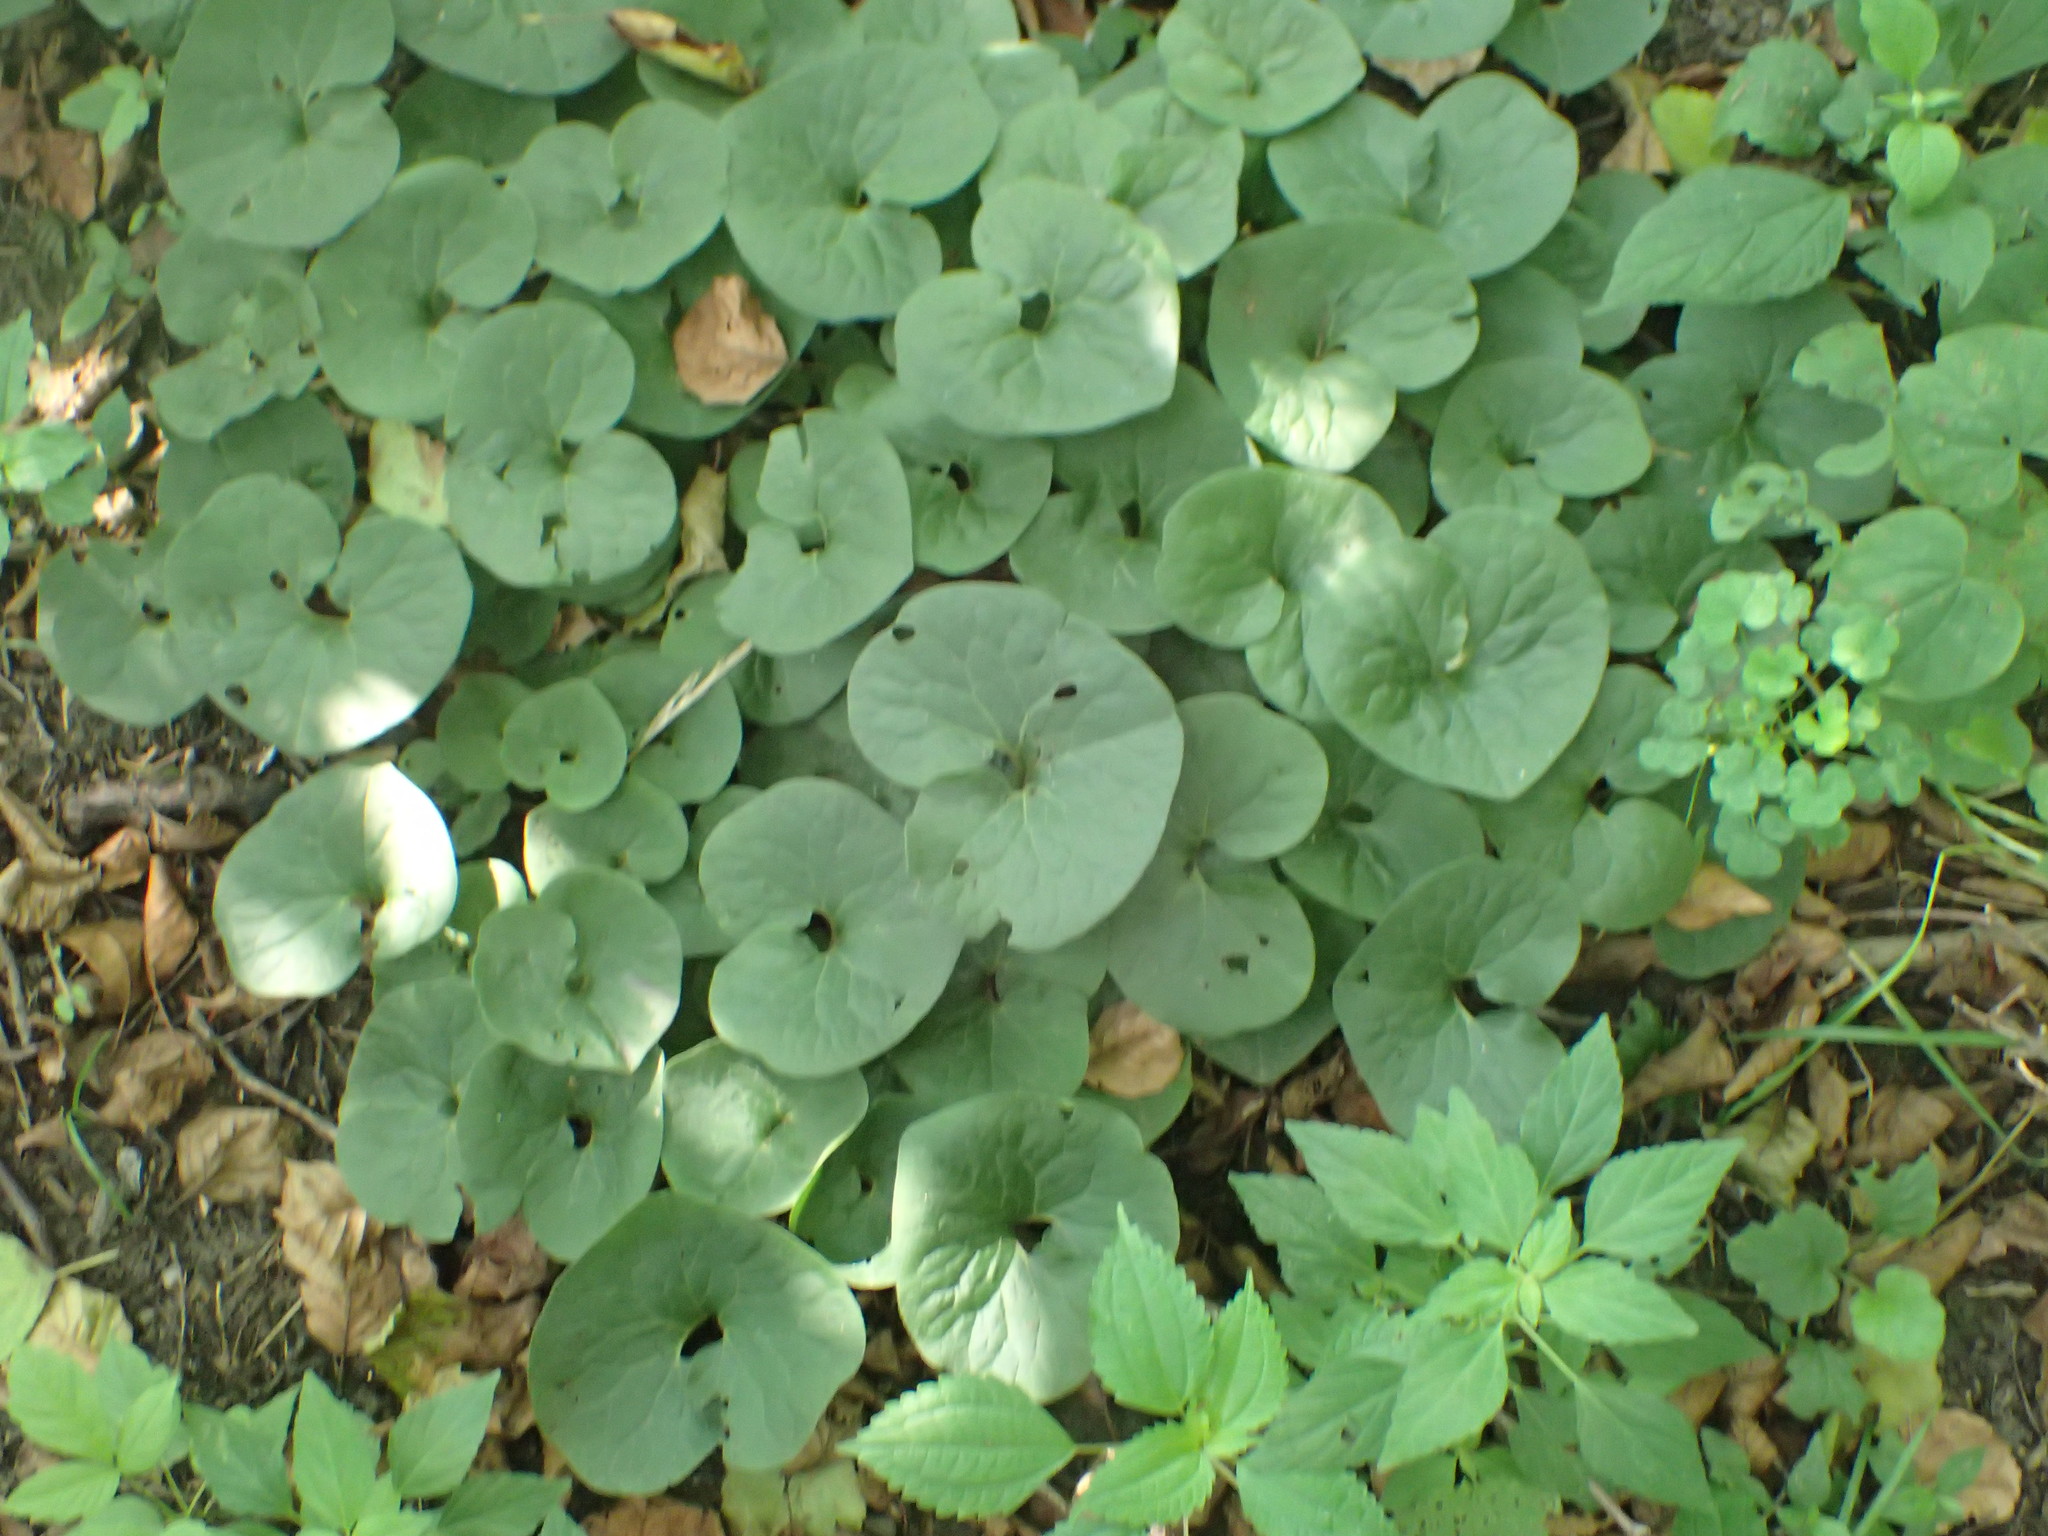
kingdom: Plantae
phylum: Tracheophyta
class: Magnoliopsida
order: Piperales
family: Aristolochiaceae
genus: Asarum
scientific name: Asarum canadense
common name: Wild ginger
